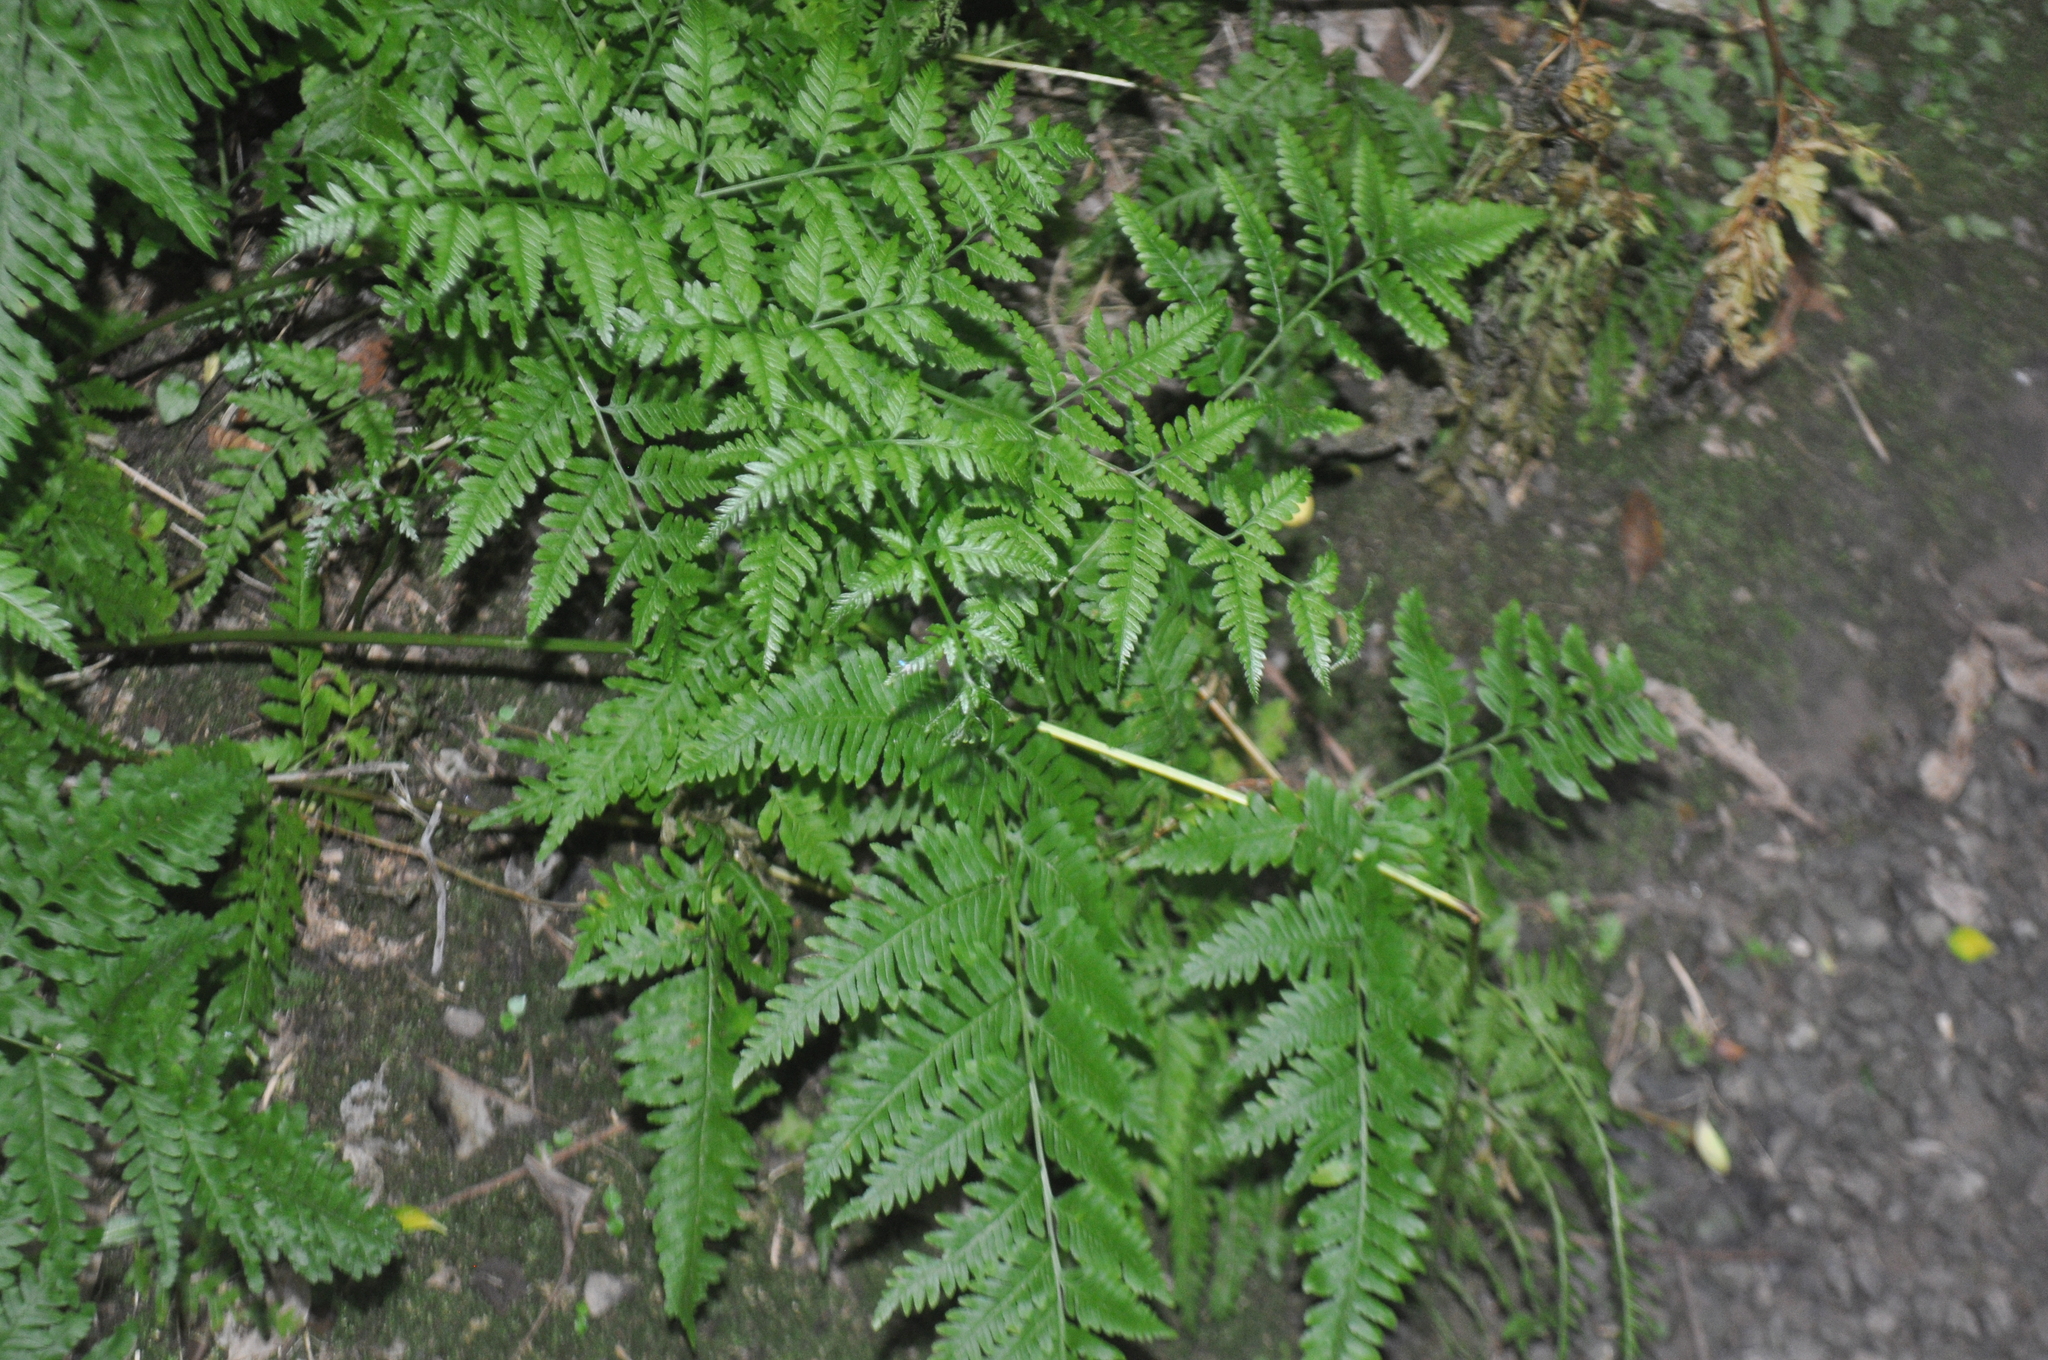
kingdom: Plantae
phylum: Tracheophyta
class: Polypodiopsida
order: Polypodiales
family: Pteridaceae
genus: Pteris
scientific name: Pteris tremula
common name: Australian brake
